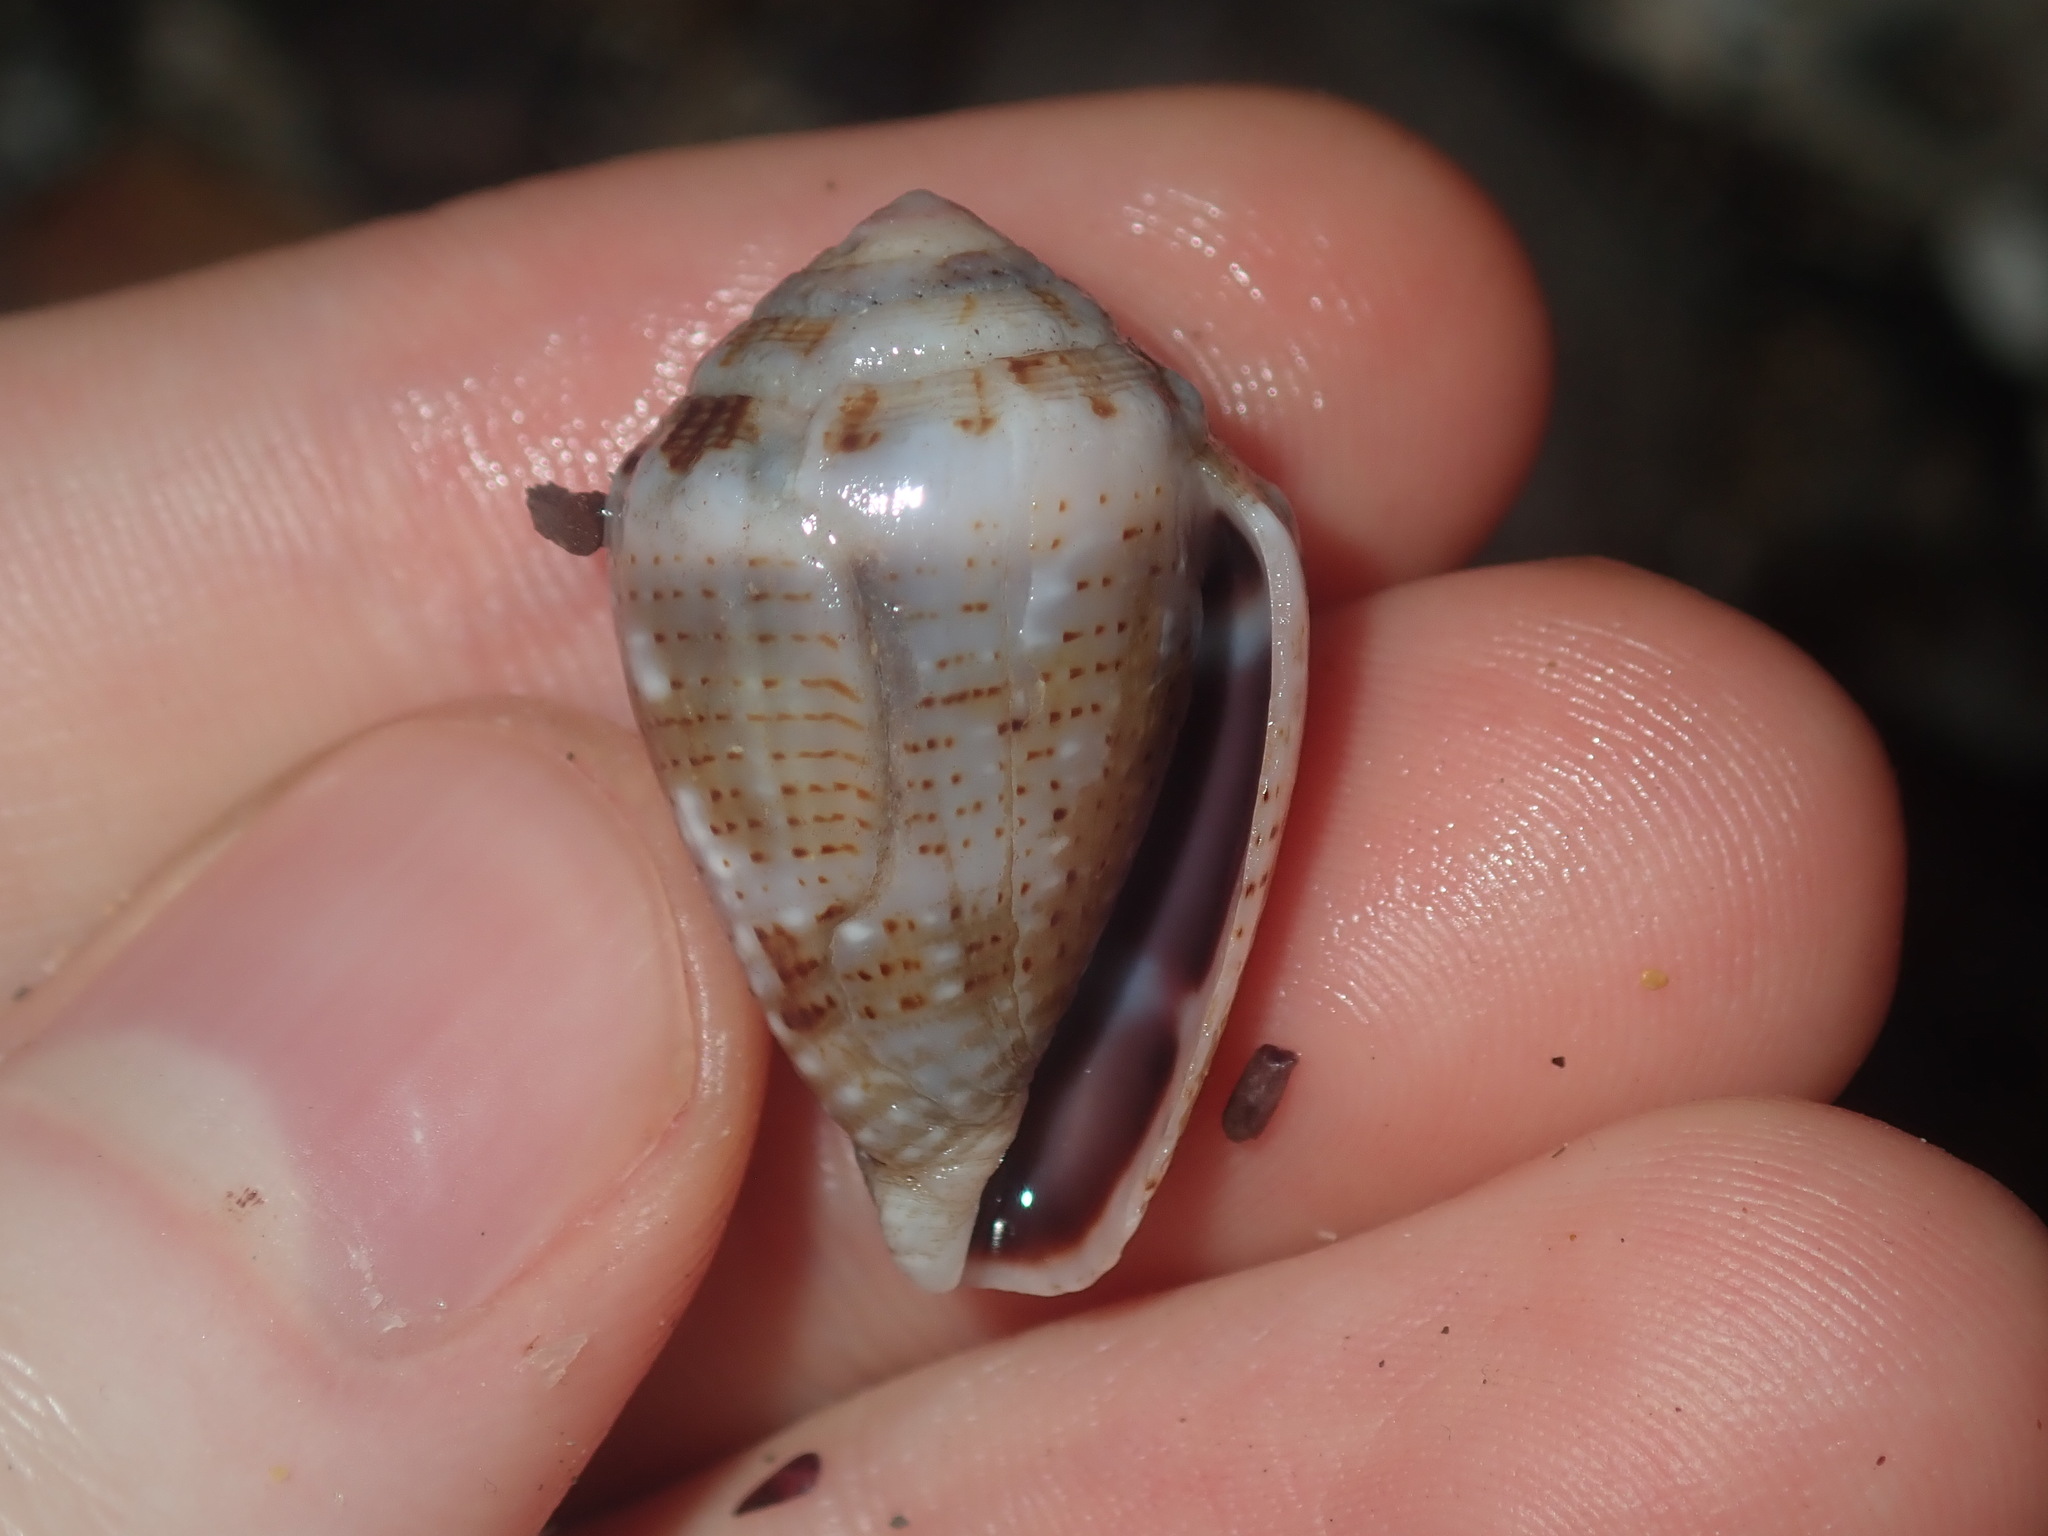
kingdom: Animalia
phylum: Mollusca
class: Gastropoda
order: Neogastropoda
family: Conidae
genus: Conus
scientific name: Conus coronatus
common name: Coronated cone
